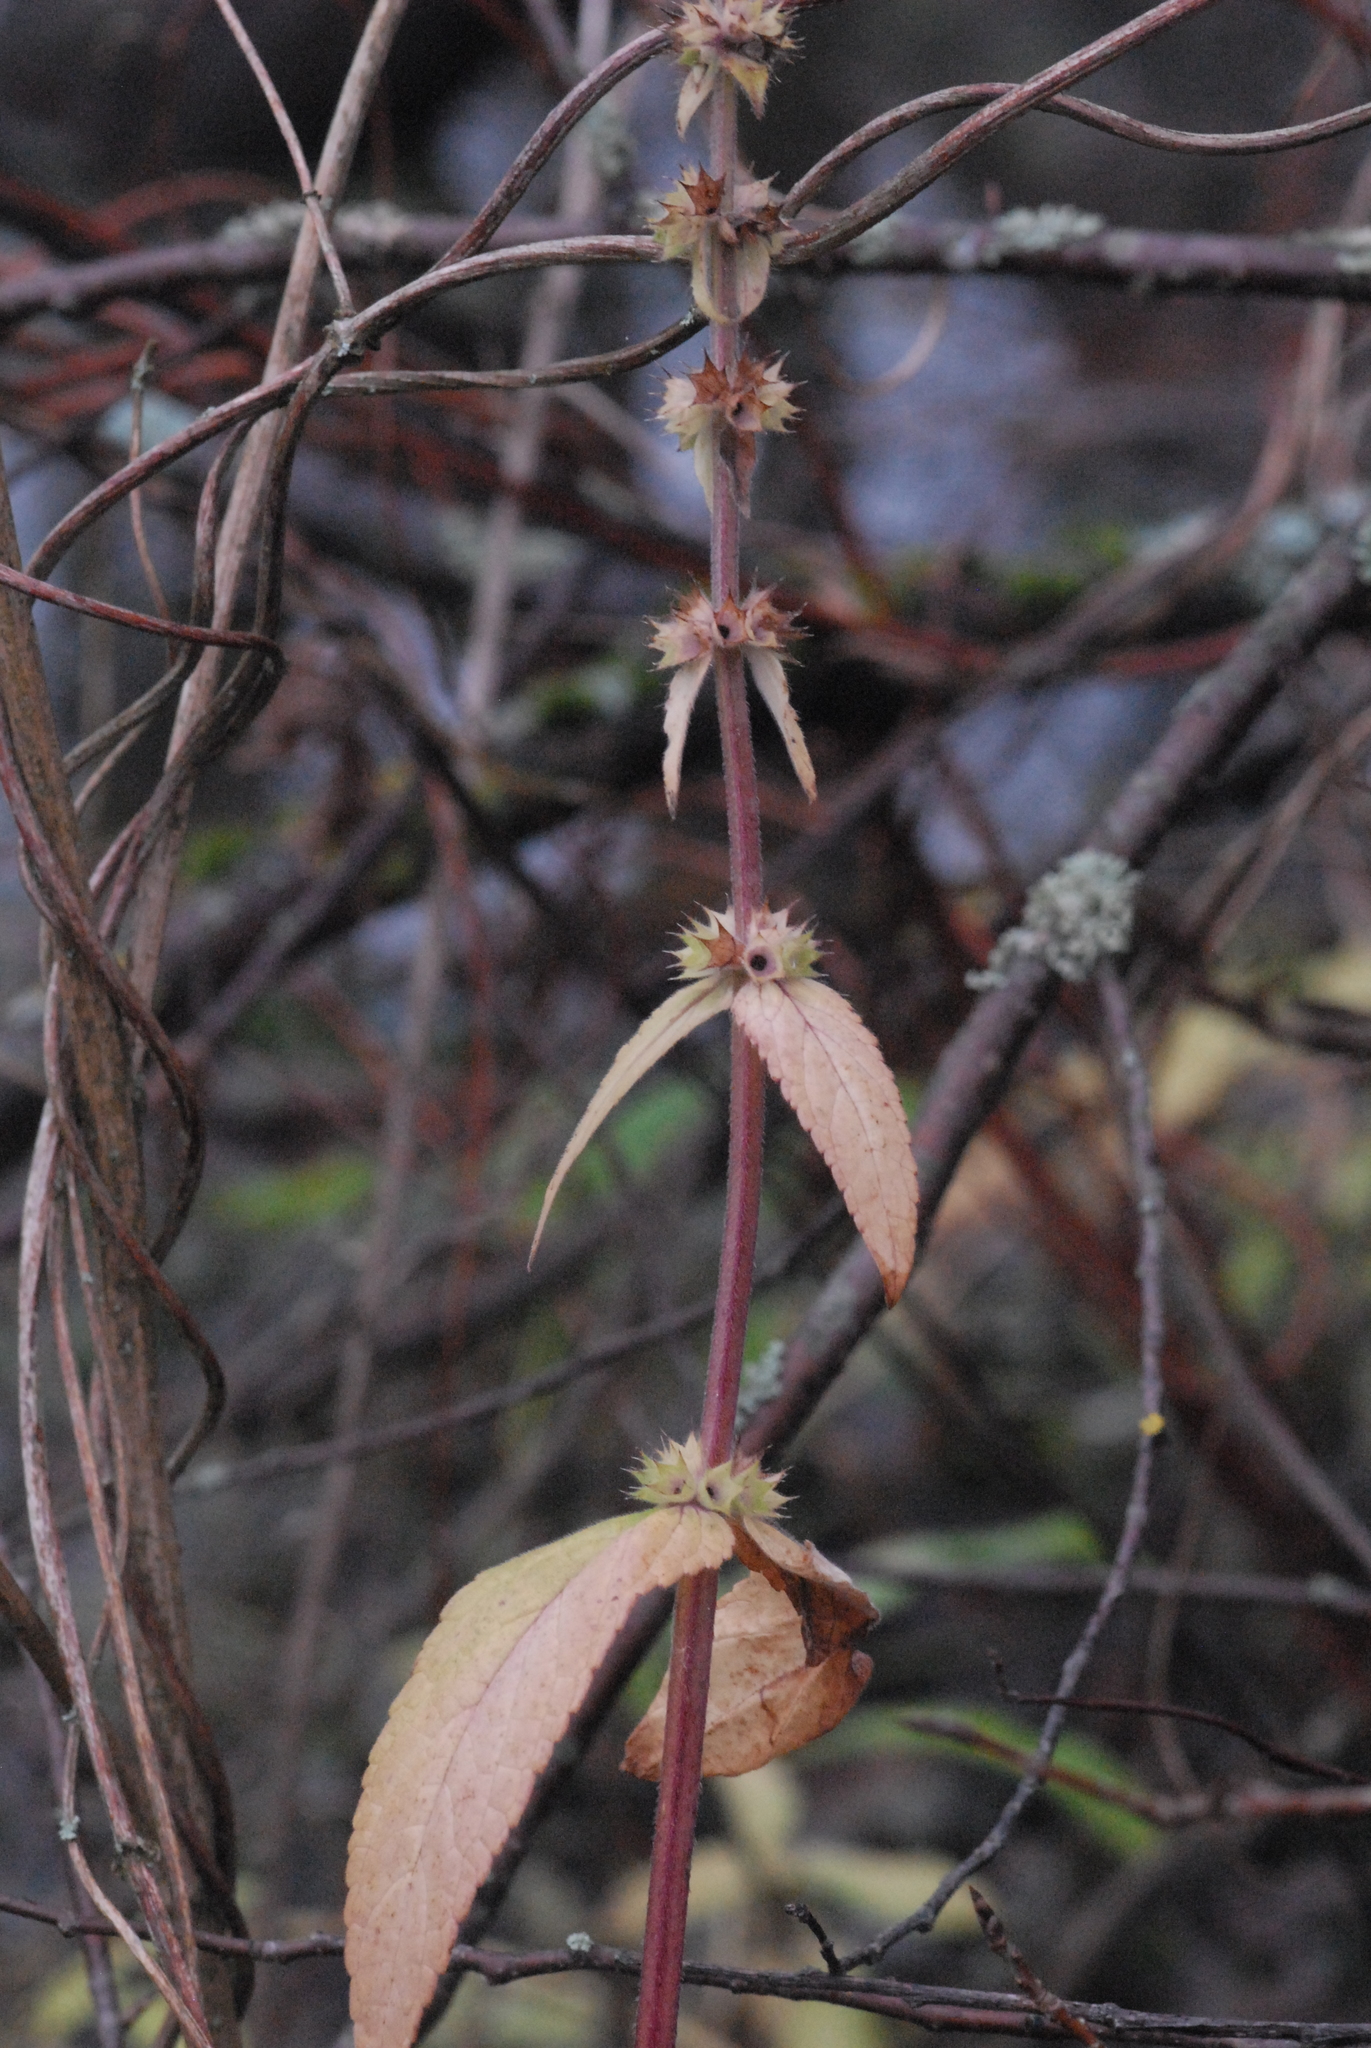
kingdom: Plantae
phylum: Tracheophyta
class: Magnoliopsida
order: Lamiales
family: Lamiaceae
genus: Lycopus
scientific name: Lycopus europaeus
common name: European bugleweed
